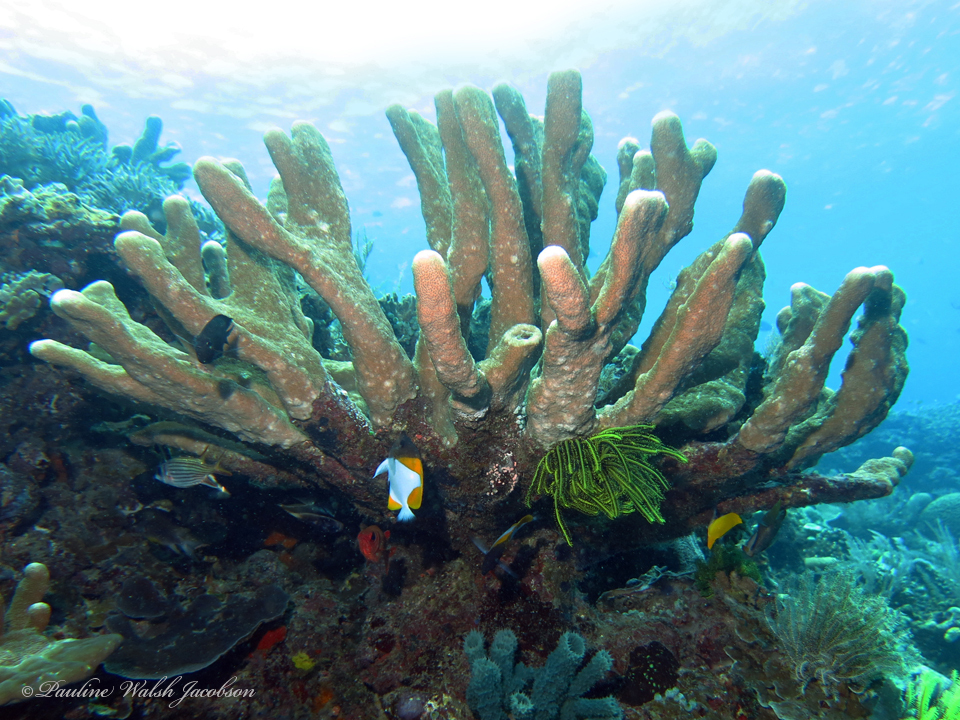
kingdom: Animalia
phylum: Chordata
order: Perciformes
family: Chaetodontidae
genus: Hemitaurichthys
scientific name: Hemitaurichthys polylepis
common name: Brushytoothed butterflyfish
